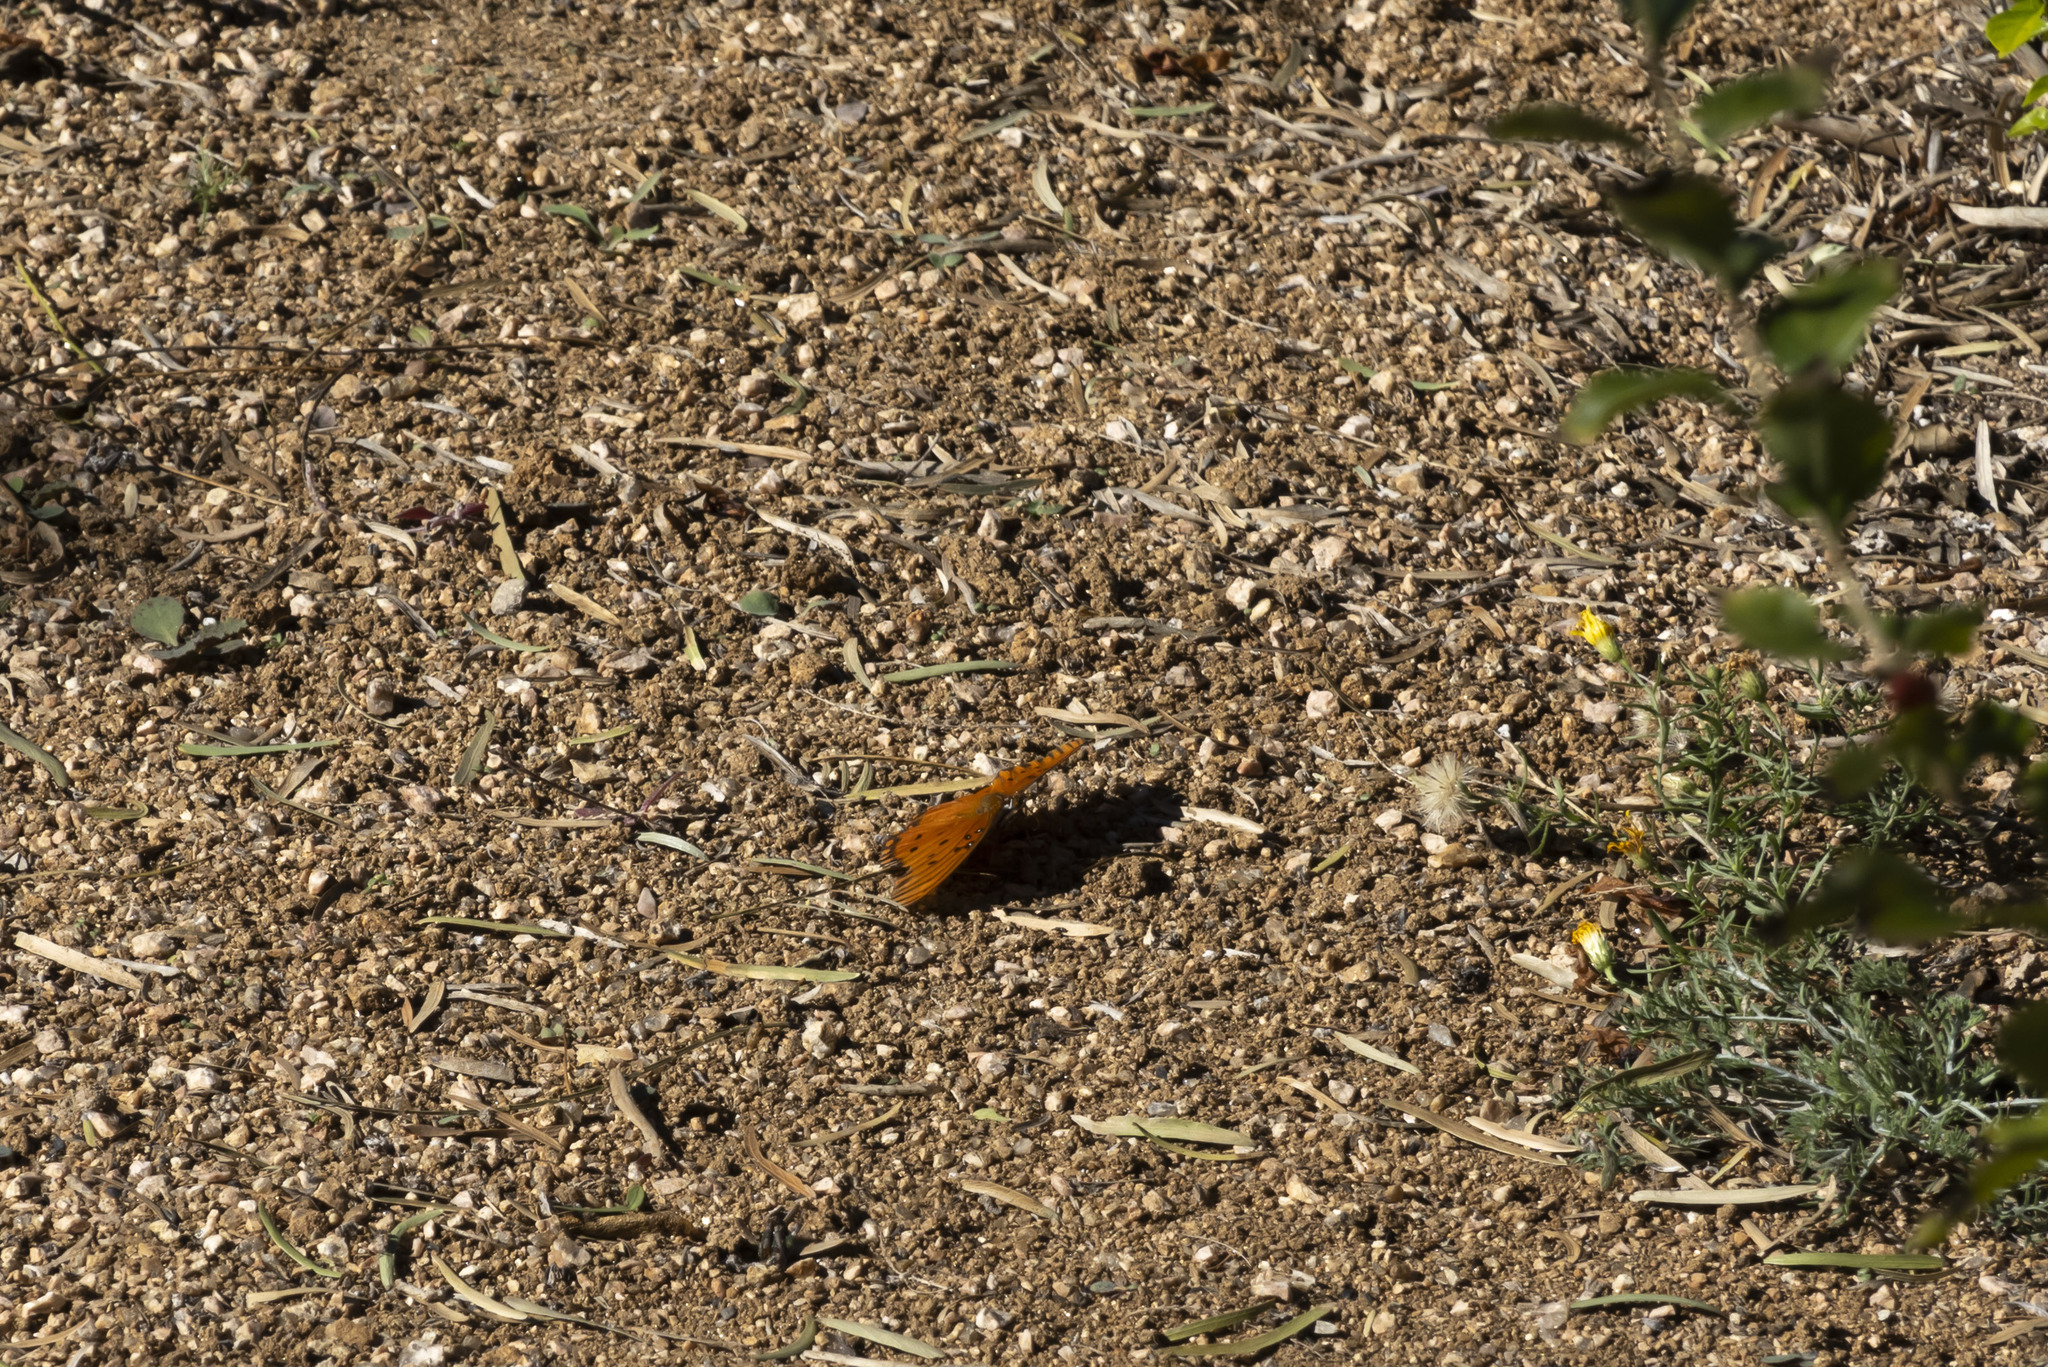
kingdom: Animalia
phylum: Arthropoda
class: Insecta
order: Lepidoptera
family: Nymphalidae
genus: Dione
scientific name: Dione vanillae
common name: Gulf fritillary
